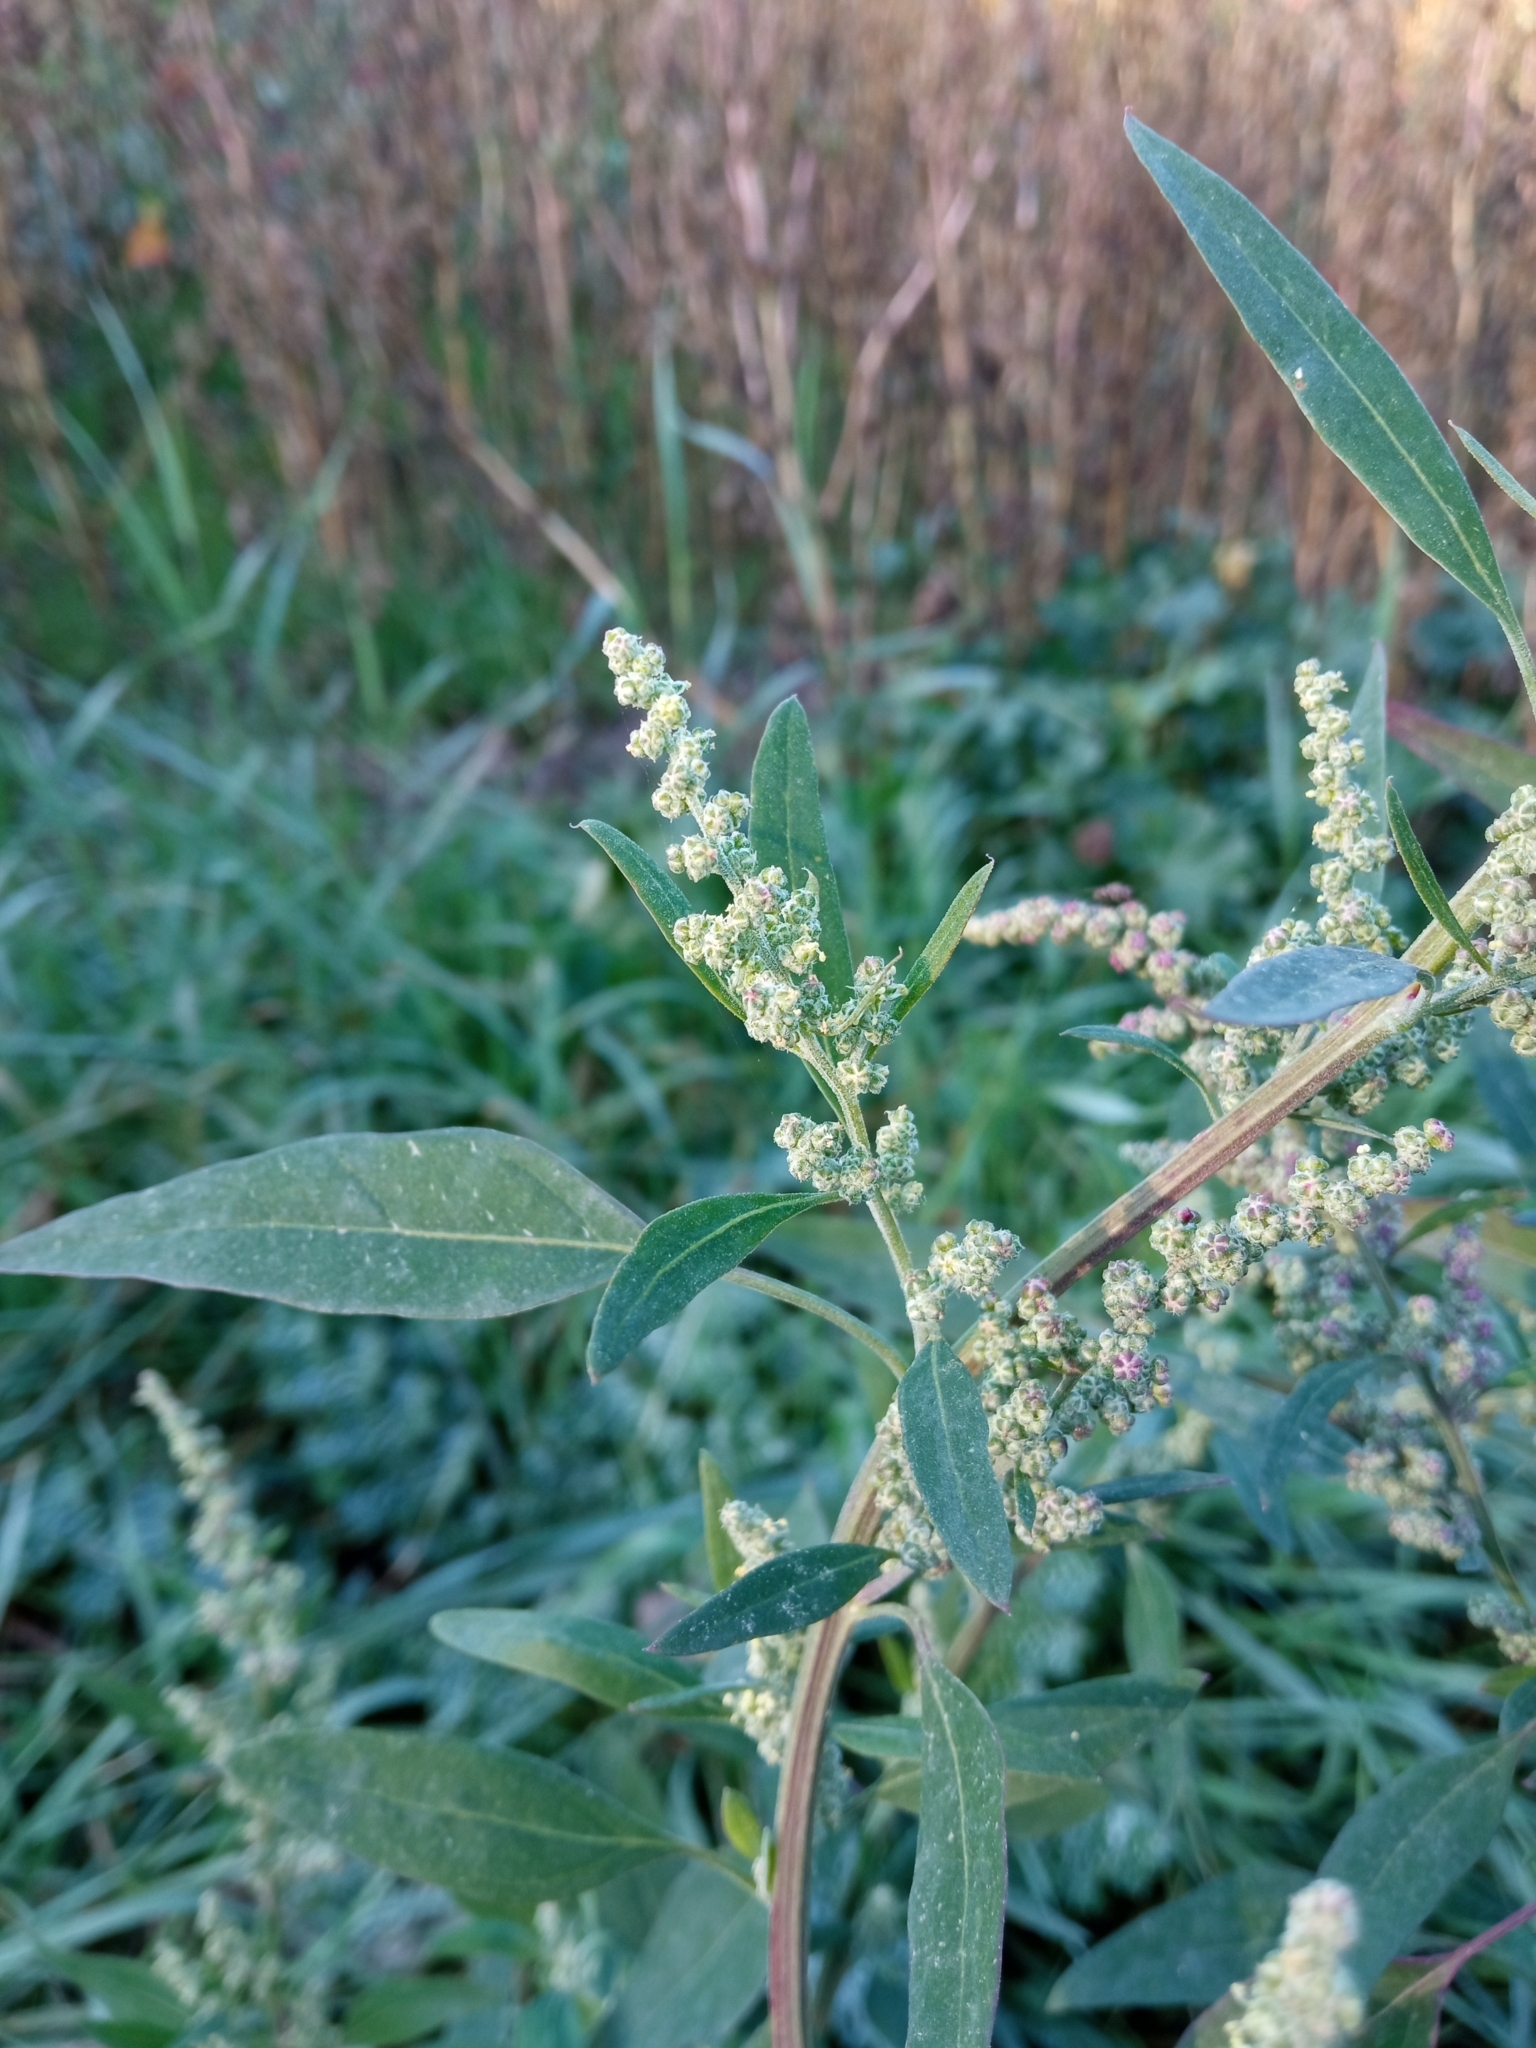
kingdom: Plantae
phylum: Tracheophyta
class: Magnoliopsida
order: Caryophyllales
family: Amaranthaceae
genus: Chenopodium
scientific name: Chenopodium album
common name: Fat-hen
